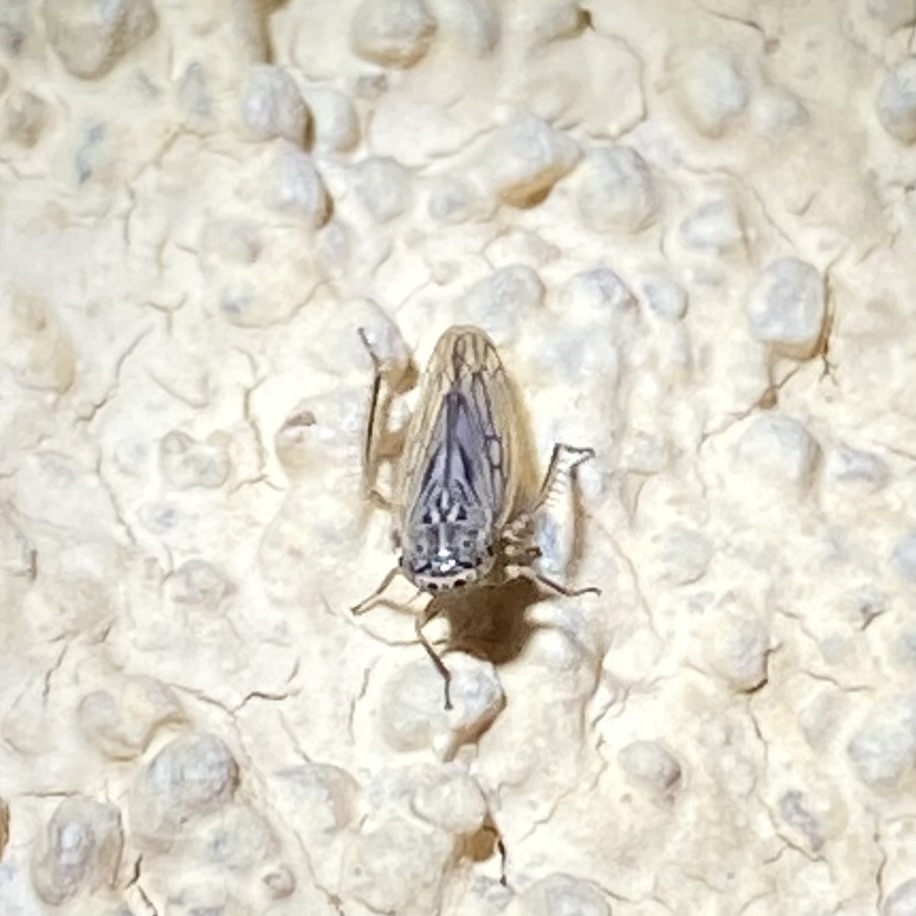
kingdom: Animalia
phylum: Arthropoda
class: Insecta
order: Hemiptera
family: Cicadellidae
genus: Exitianus
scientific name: Exitianus
